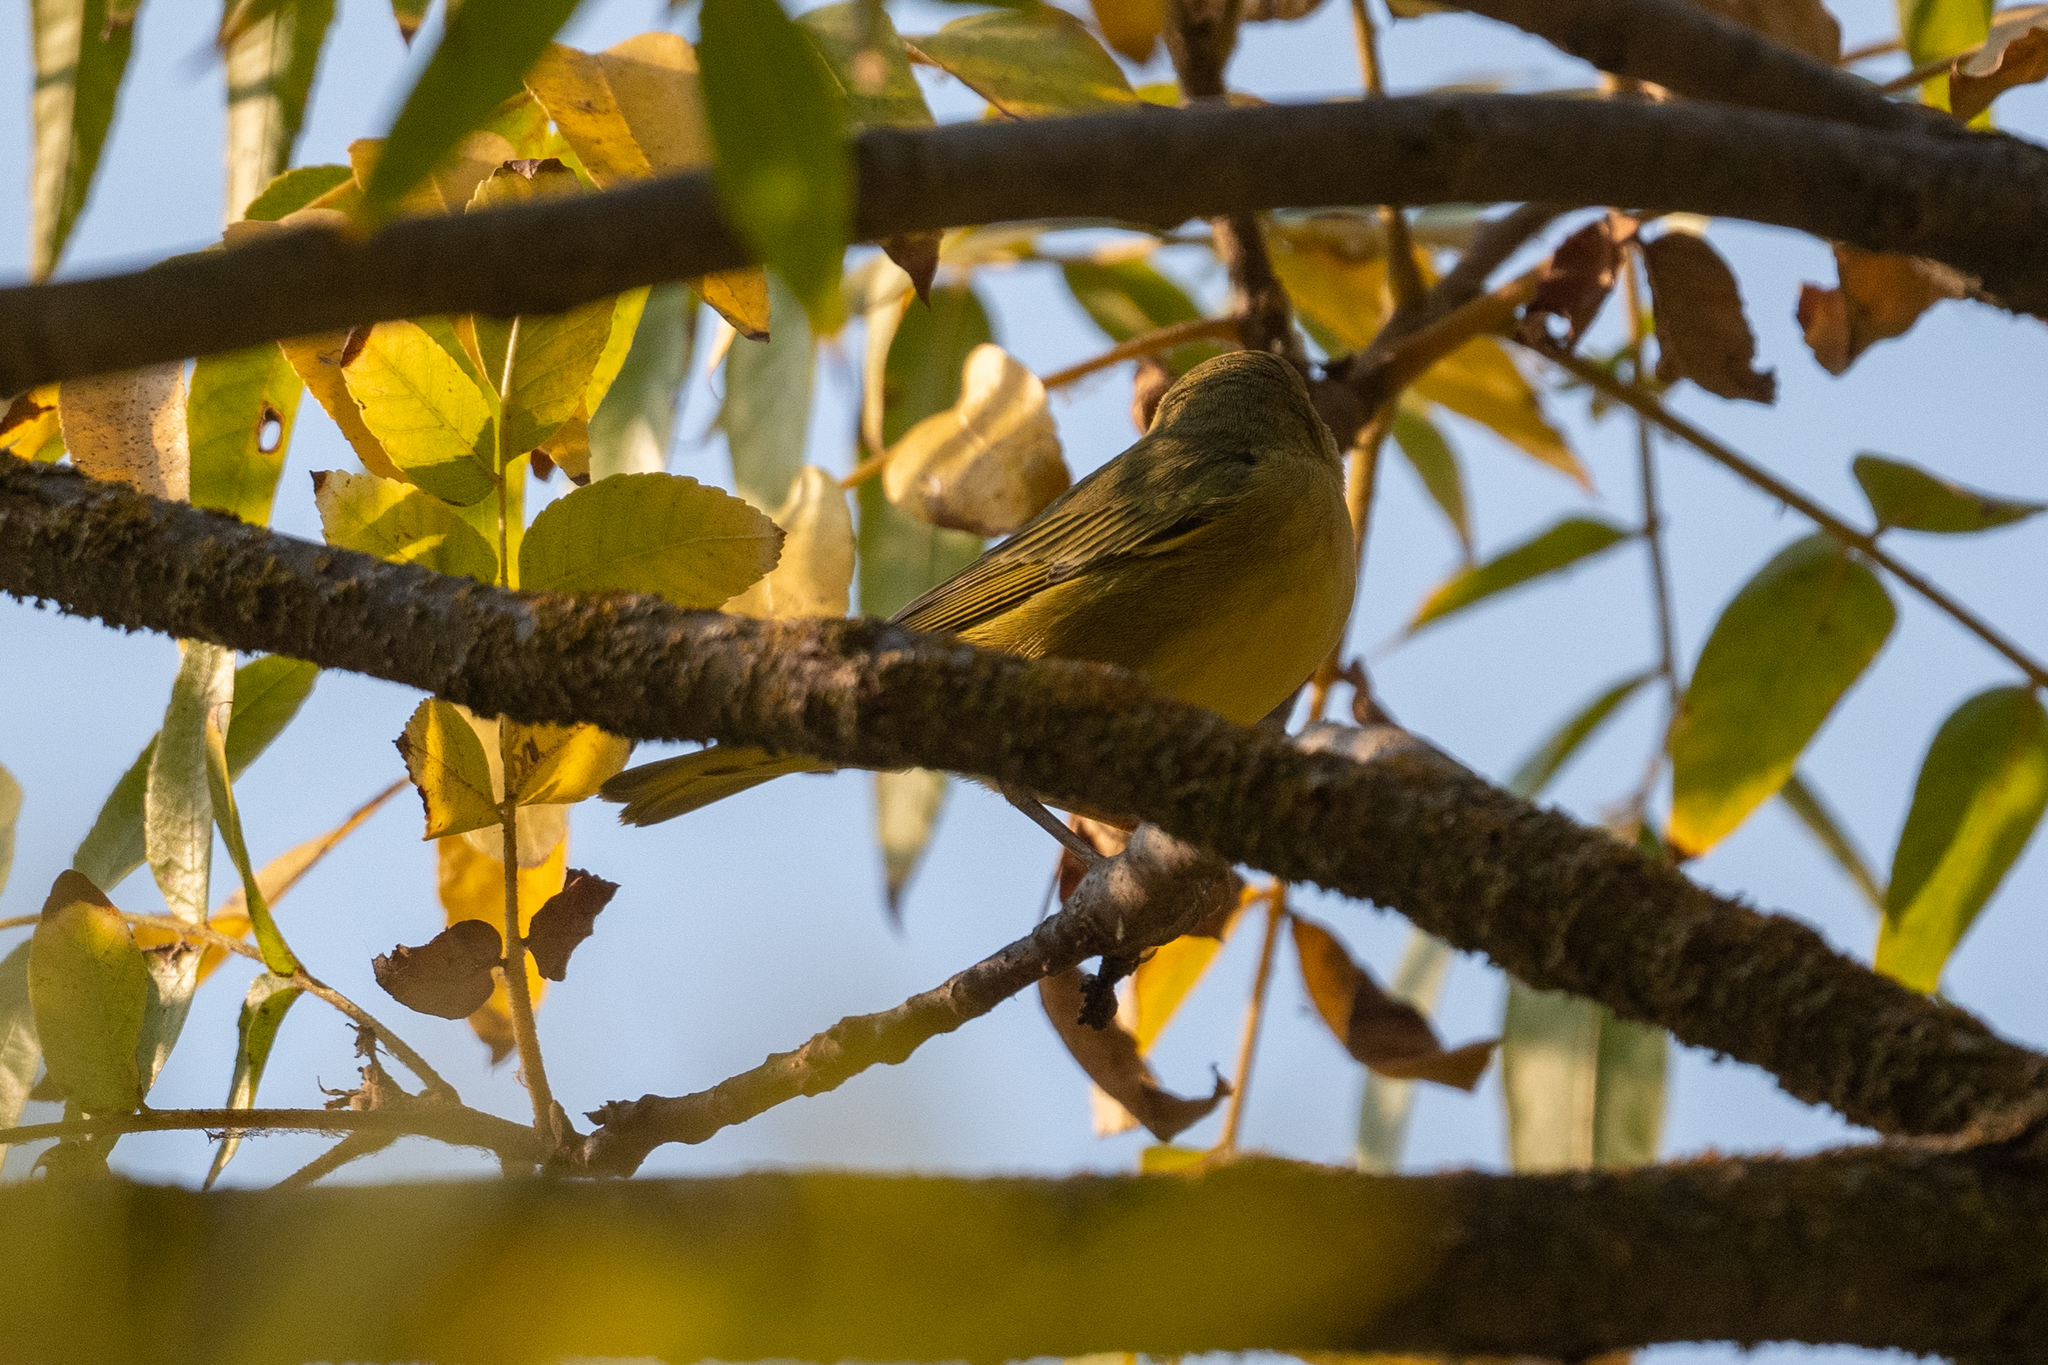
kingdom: Animalia
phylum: Chordata
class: Aves
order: Passeriformes
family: Parulidae
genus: Setophaga
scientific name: Setophaga petechia
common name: Yellow warbler
